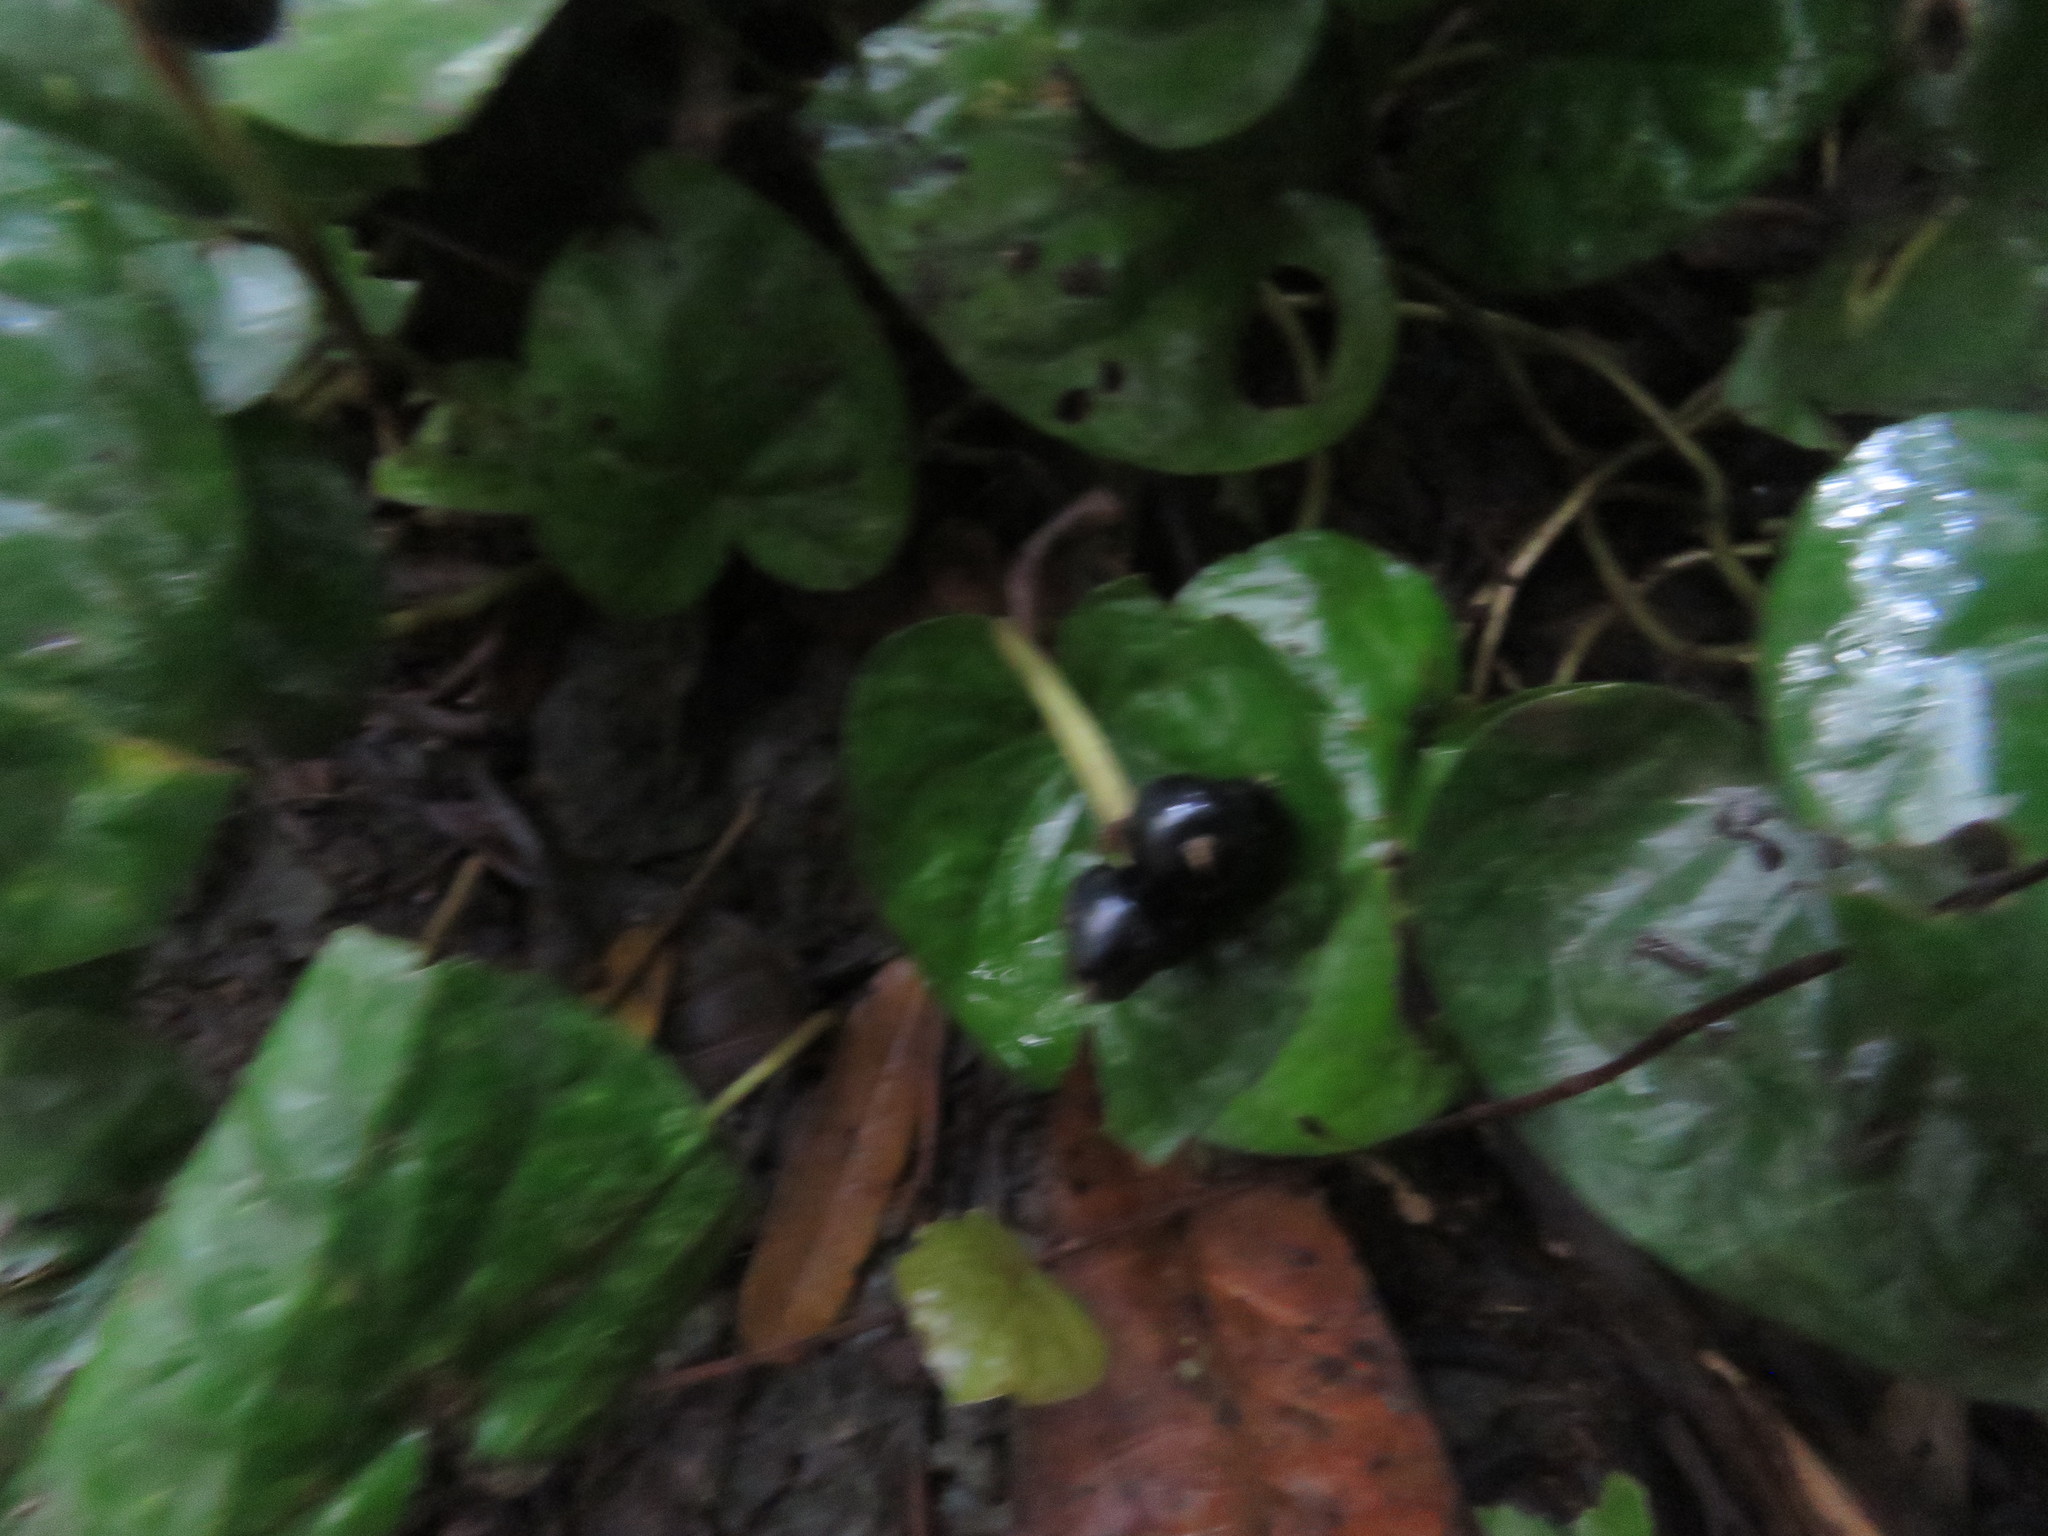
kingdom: Plantae
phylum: Tracheophyta
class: Magnoliopsida
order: Gentianales
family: Rubiaceae
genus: Geophila
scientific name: Geophila macropoda
